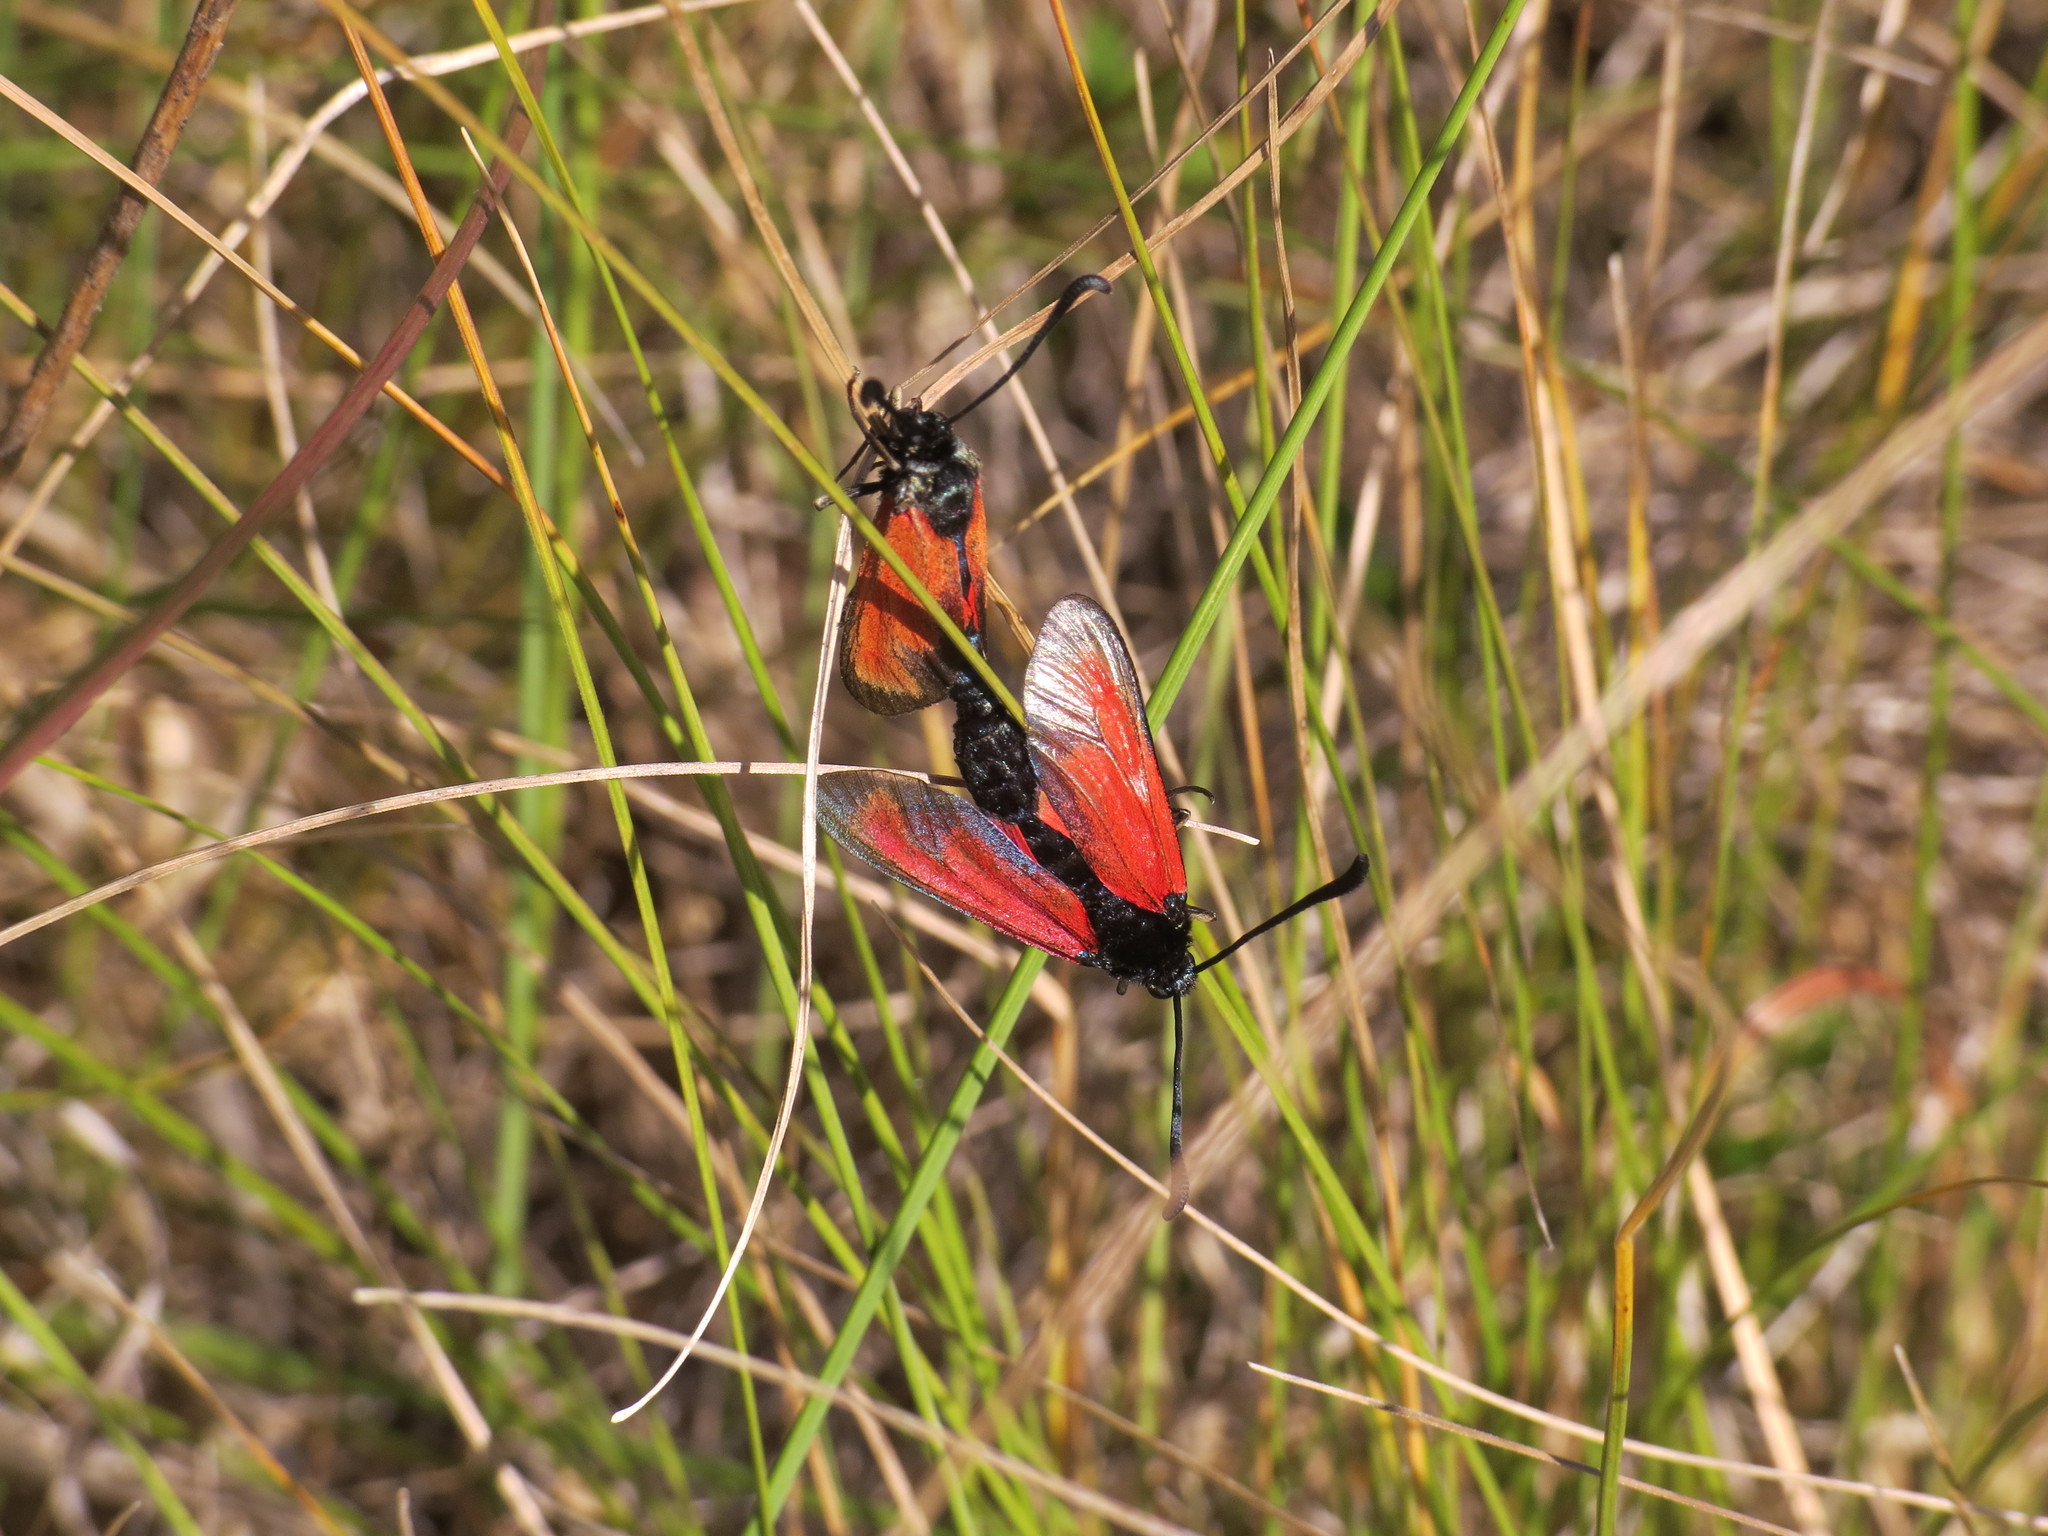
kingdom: Animalia
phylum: Arthropoda
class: Insecta
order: Lepidoptera
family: Zygaenidae
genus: Zygaena
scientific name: Zygaena erythrus
